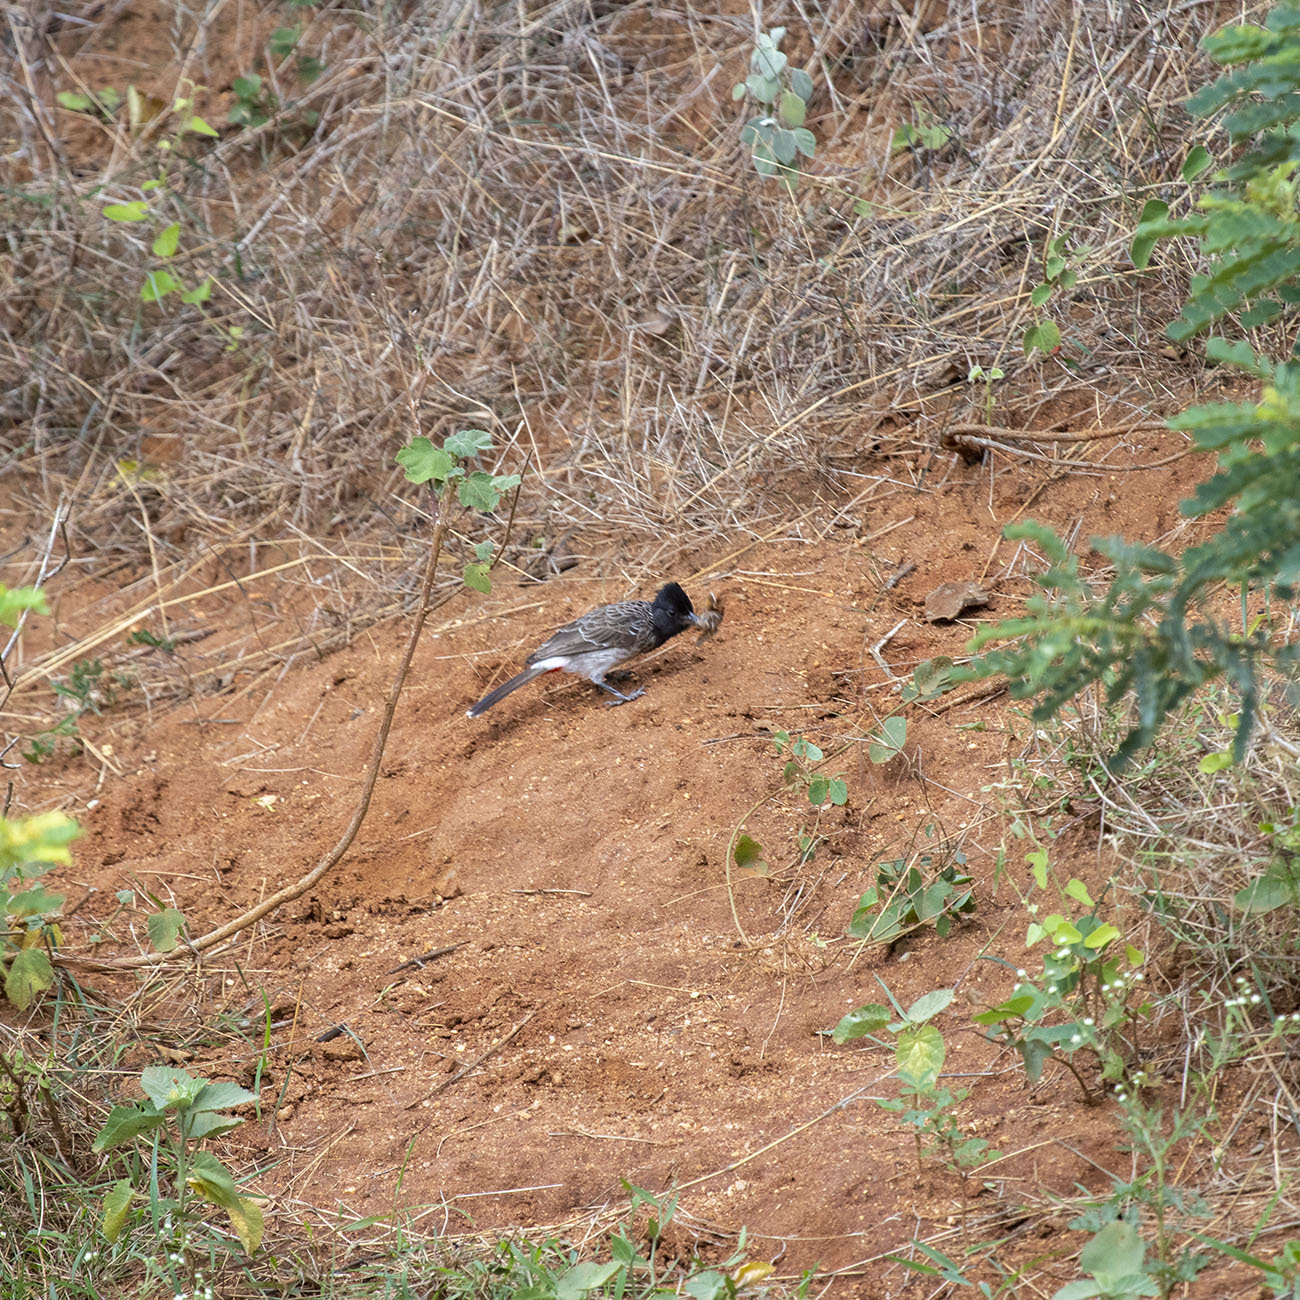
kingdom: Animalia
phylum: Chordata
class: Aves
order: Passeriformes
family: Pycnonotidae
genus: Pycnonotus
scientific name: Pycnonotus cafer
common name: Red-vented bulbul
